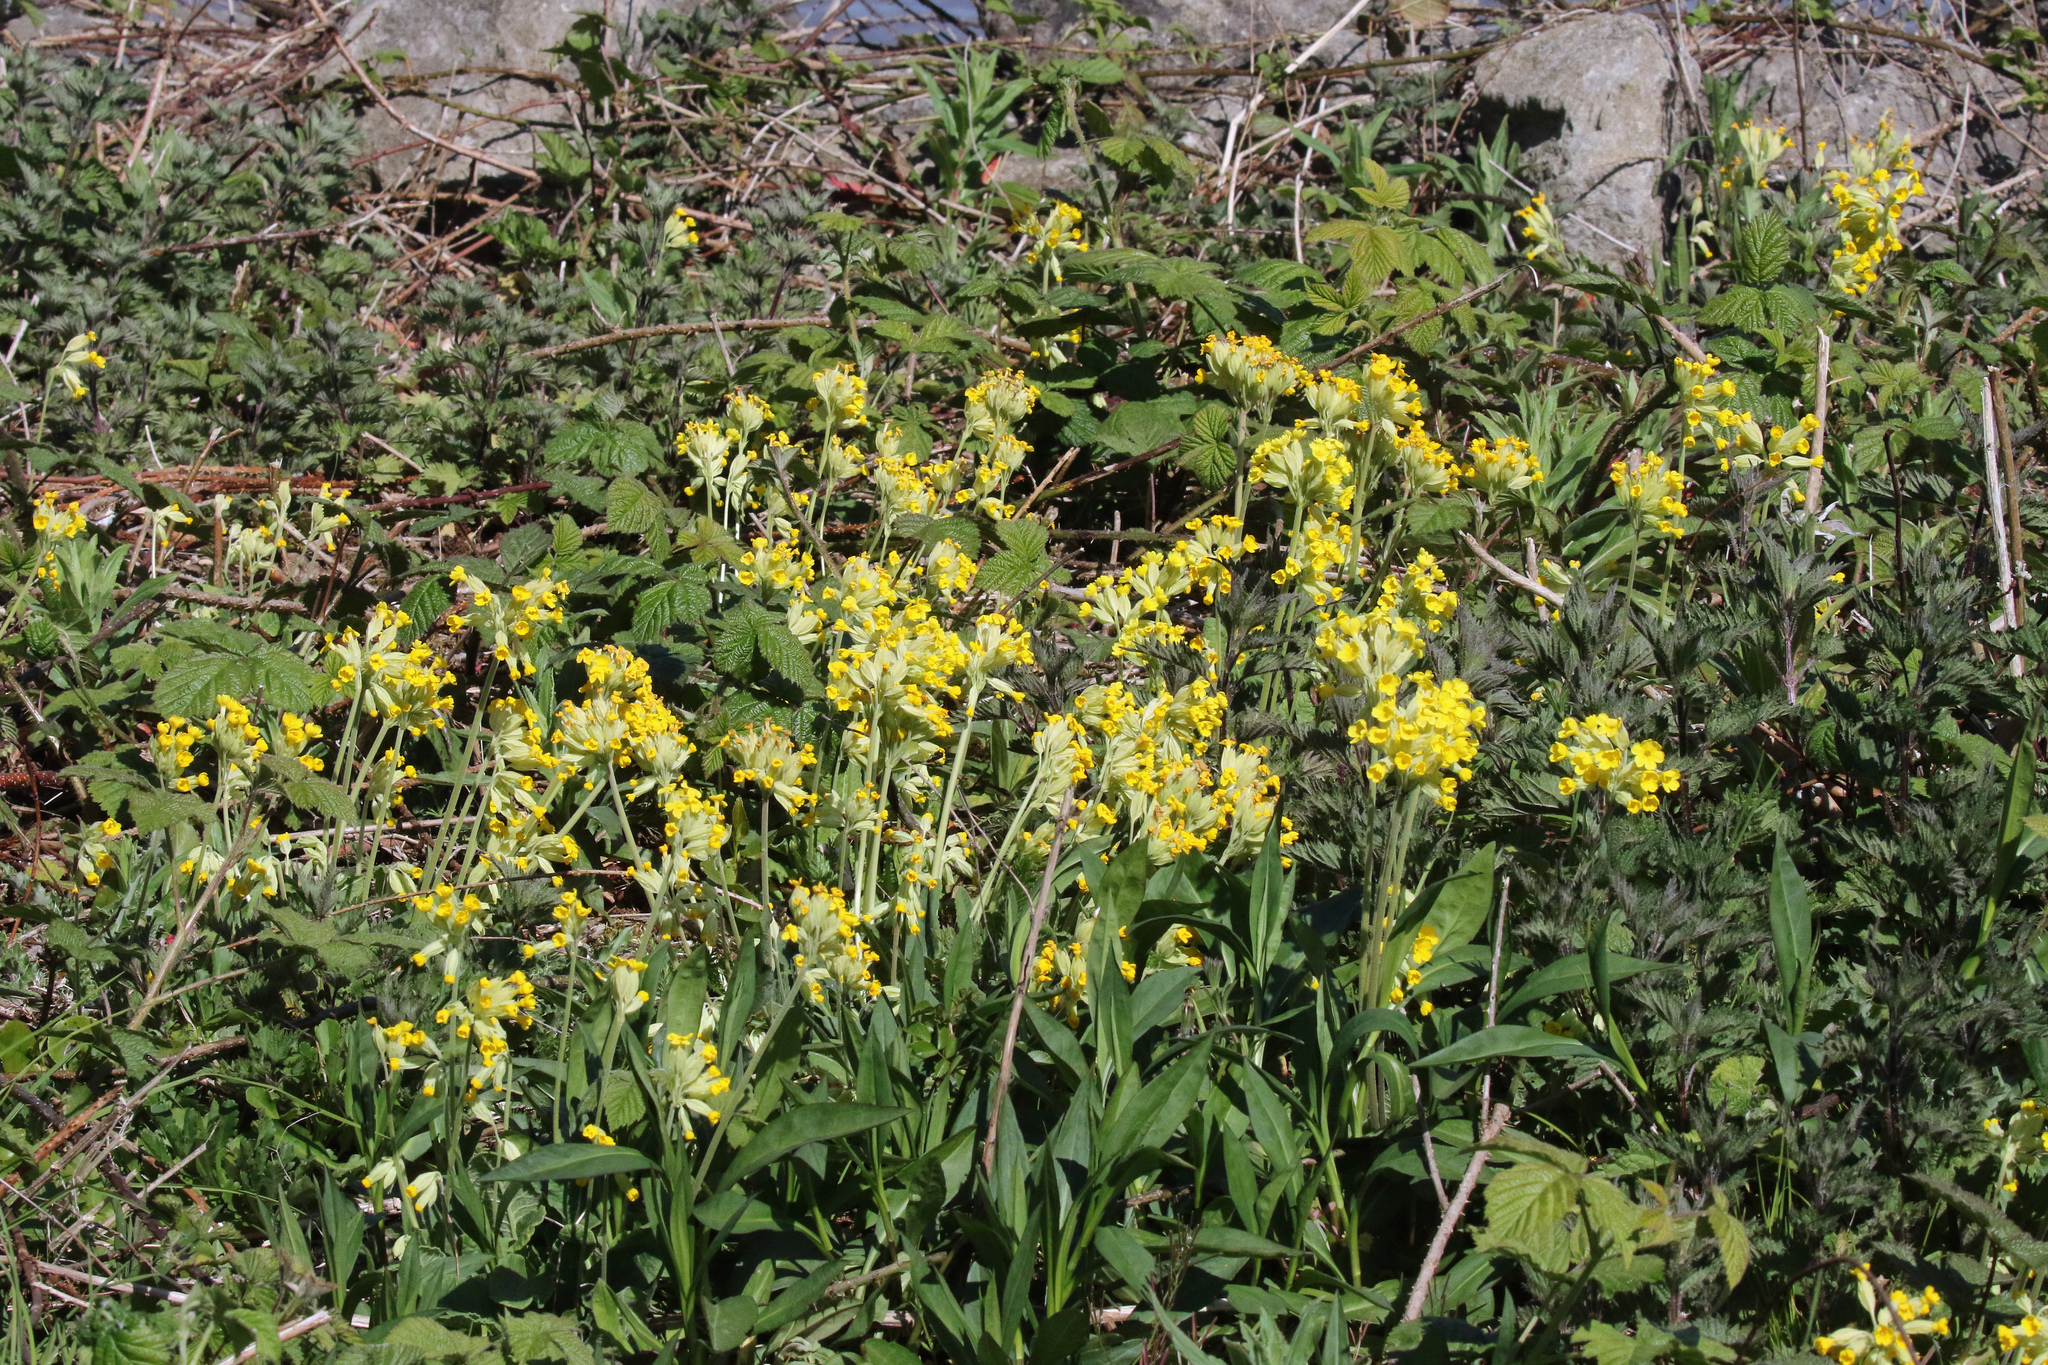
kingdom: Plantae
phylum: Tracheophyta
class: Magnoliopsida
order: Ericales
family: Primulaceae
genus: Primula
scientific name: Primula veris
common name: Cowslip
